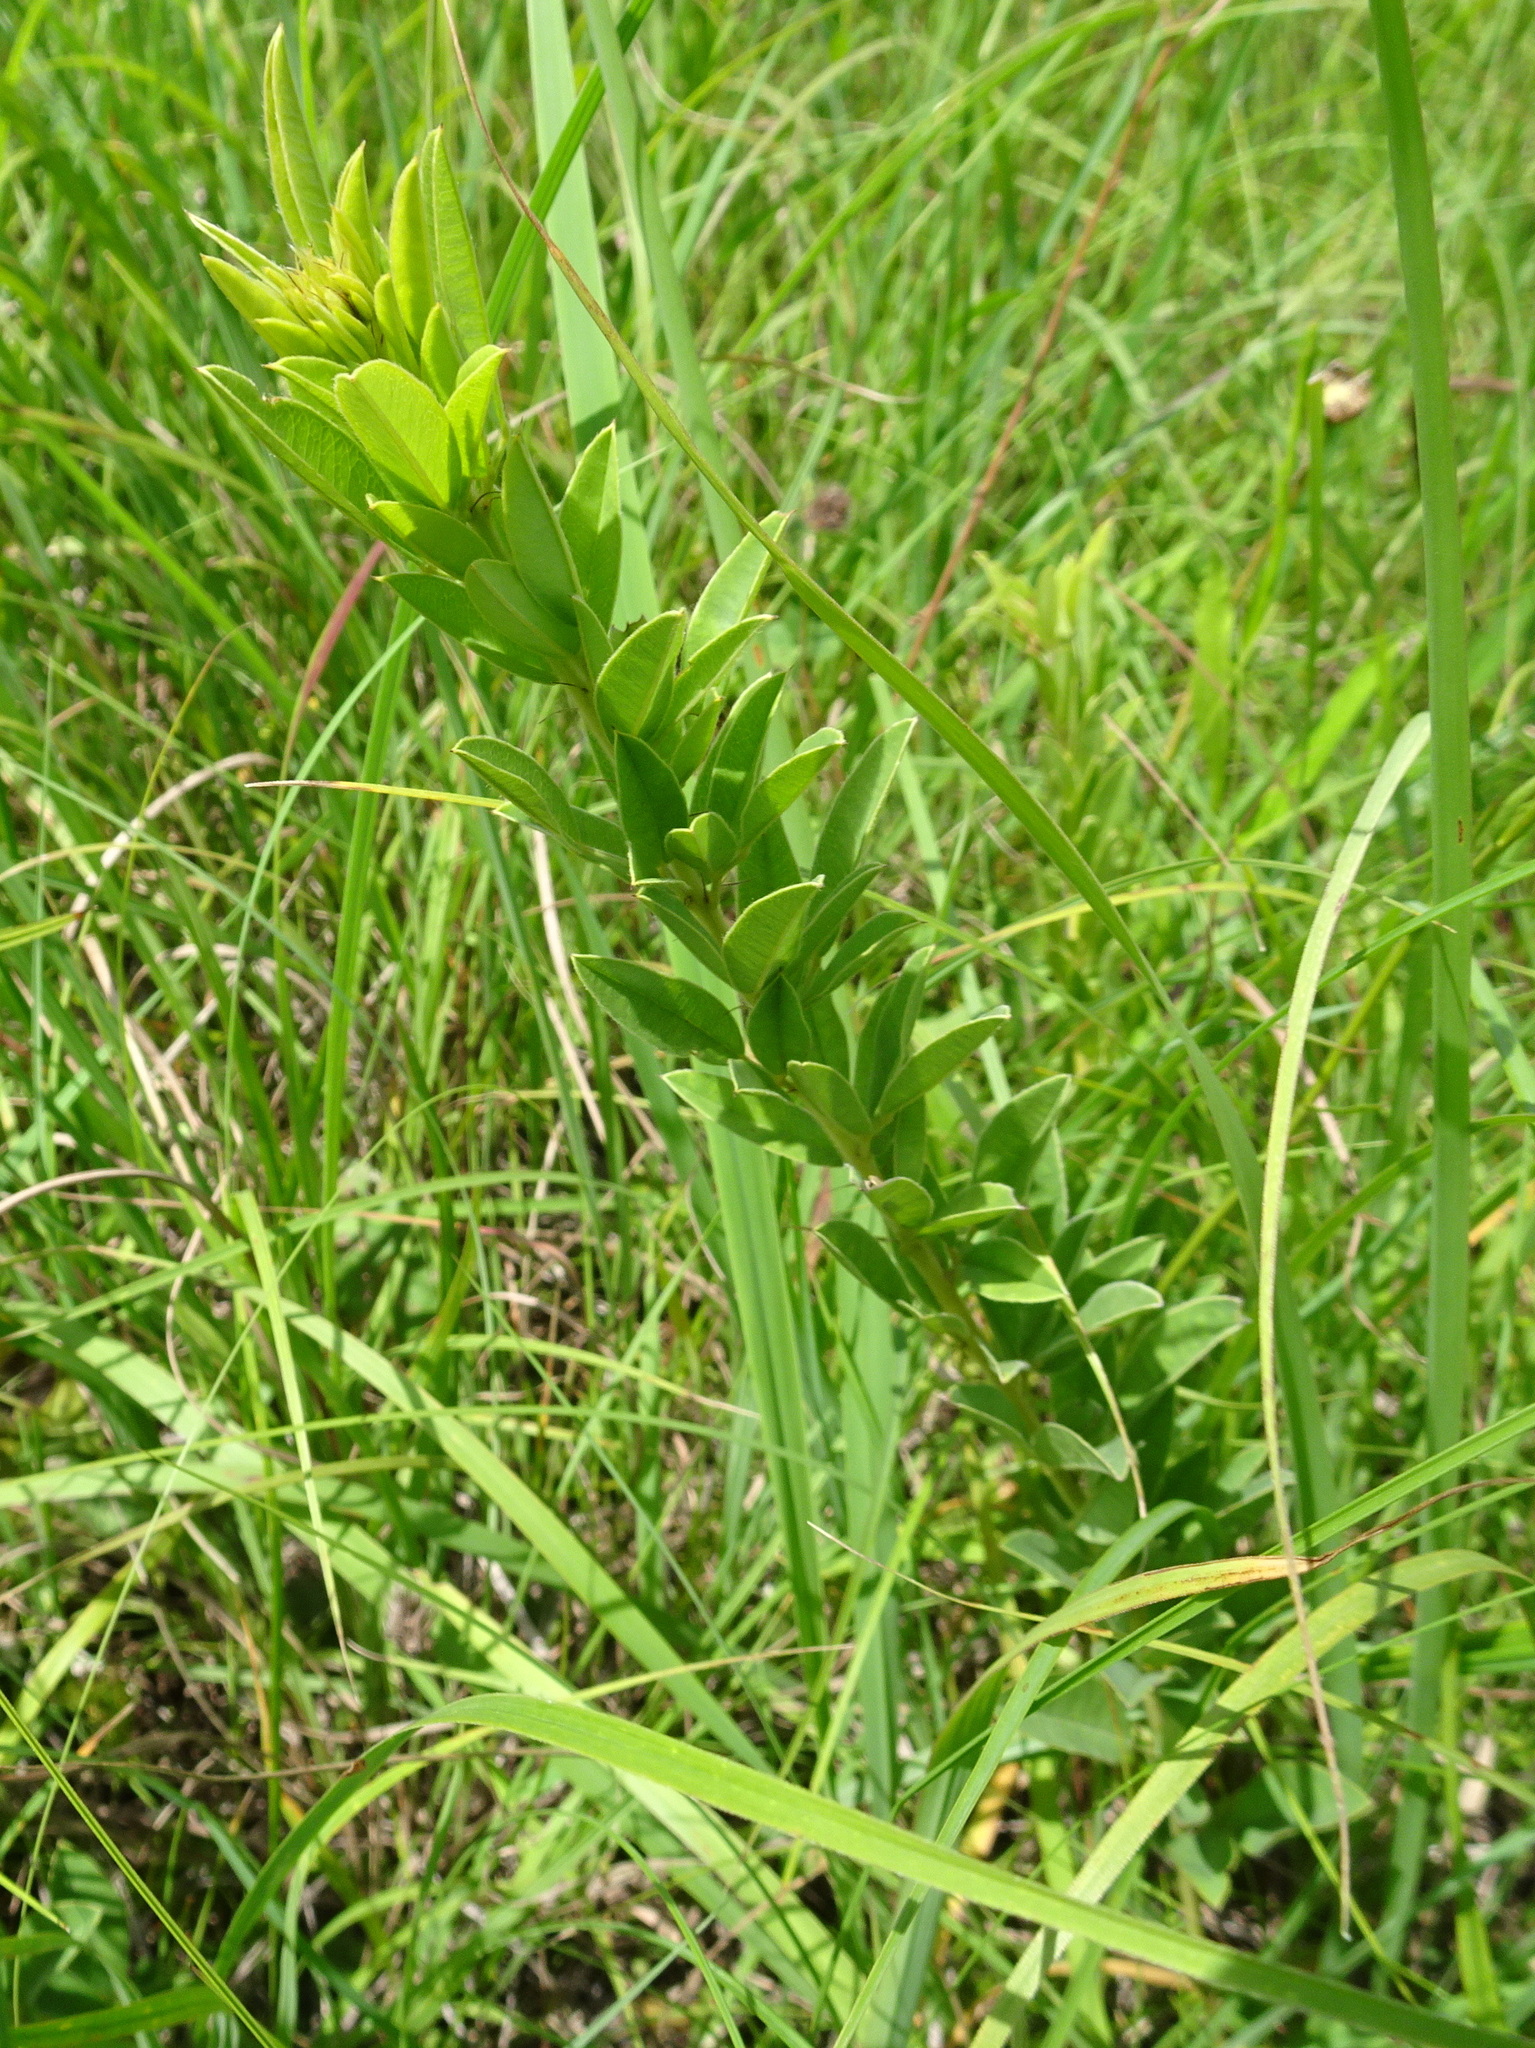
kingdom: Plantae
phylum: Tracheophyta
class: Magnoliopsida
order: Fabales
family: Fabaceae
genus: Lespedeza
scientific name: Lespedeza capitata
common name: Dusty clover
